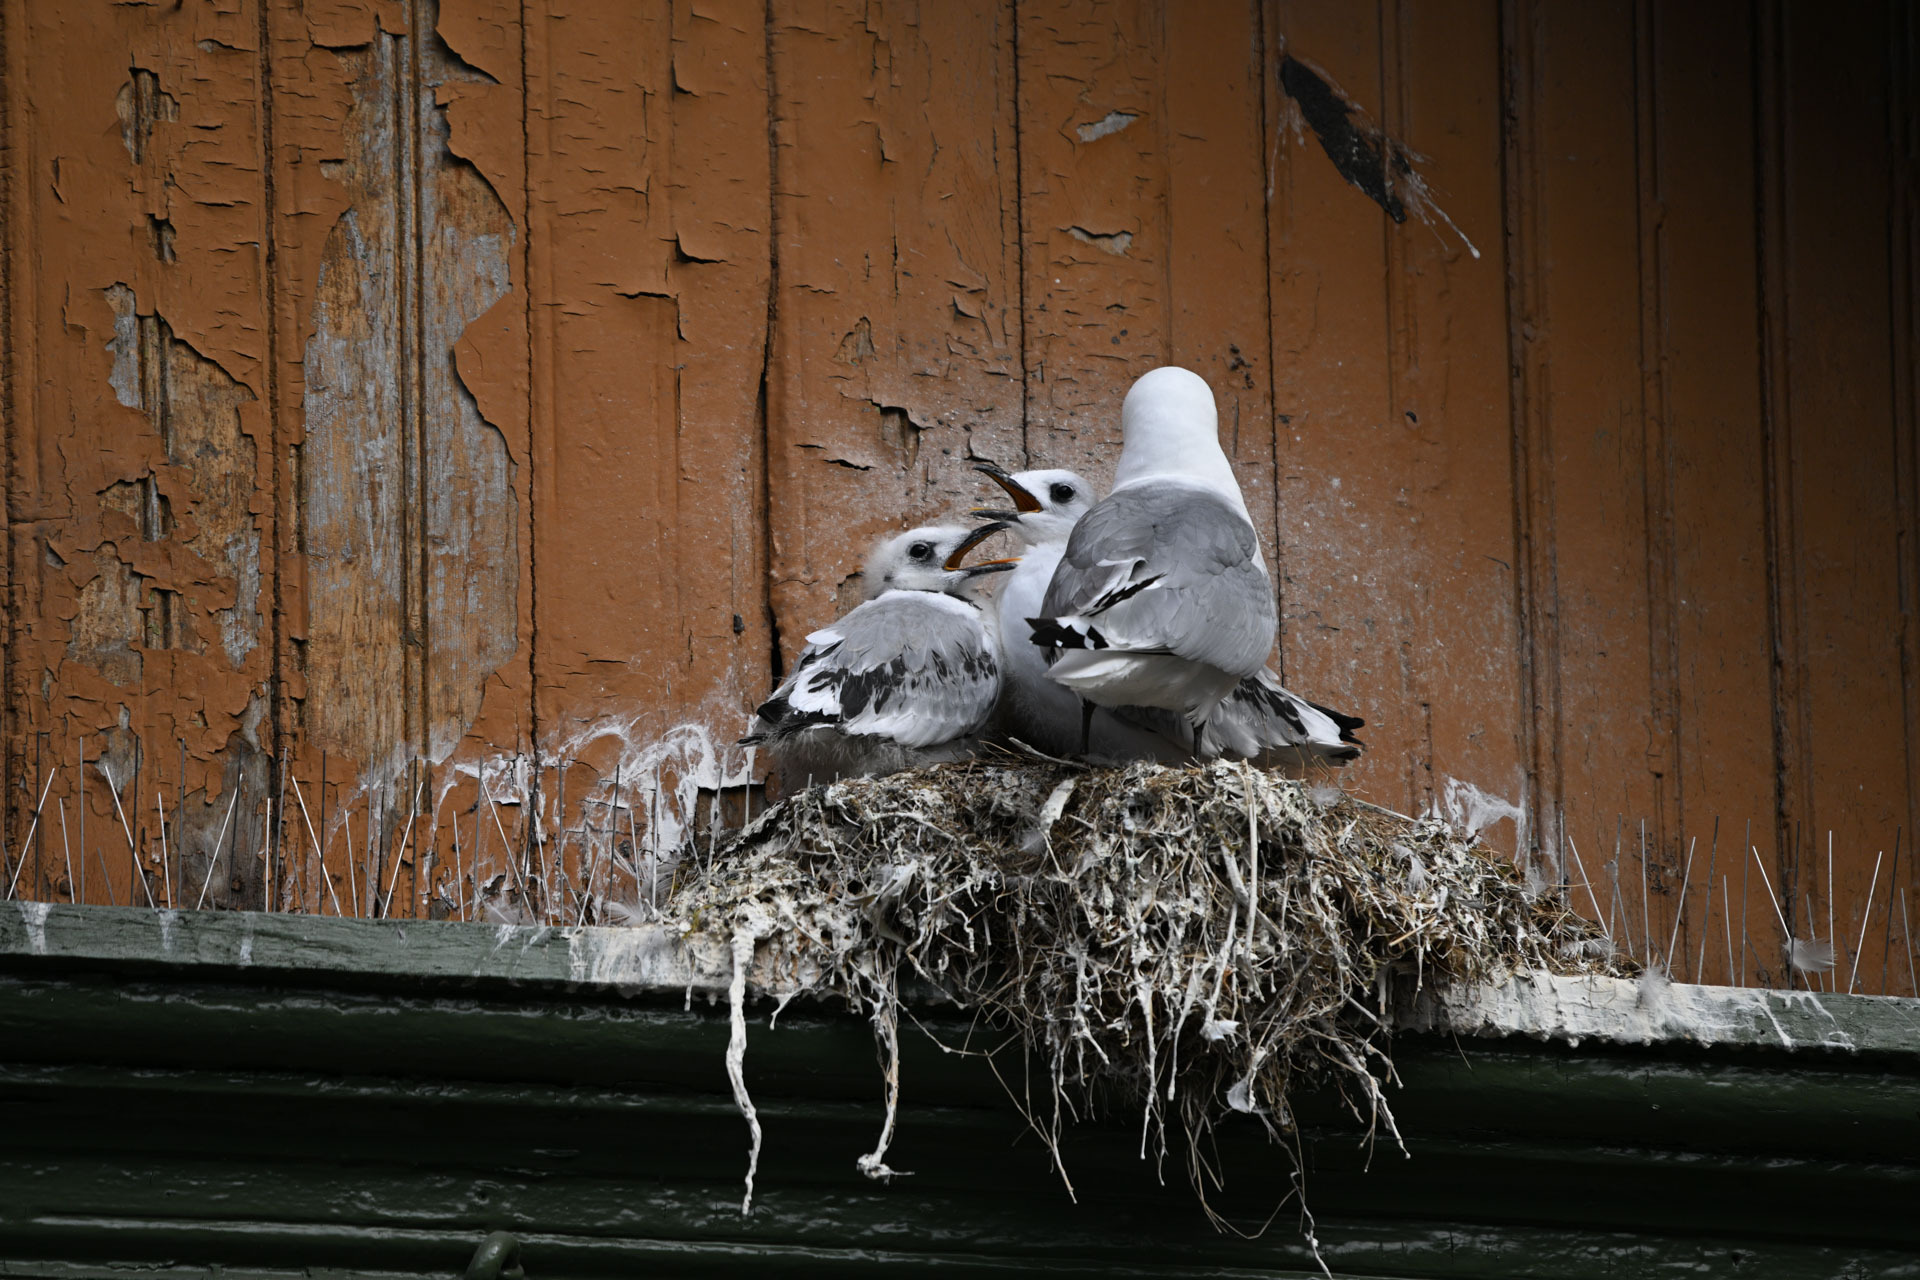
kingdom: Animalia
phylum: Chordata
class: Aves
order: Charadriiformes
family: Laridae
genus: Rissa
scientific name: Rissa tridactyla
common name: Black-legged kittiwake
